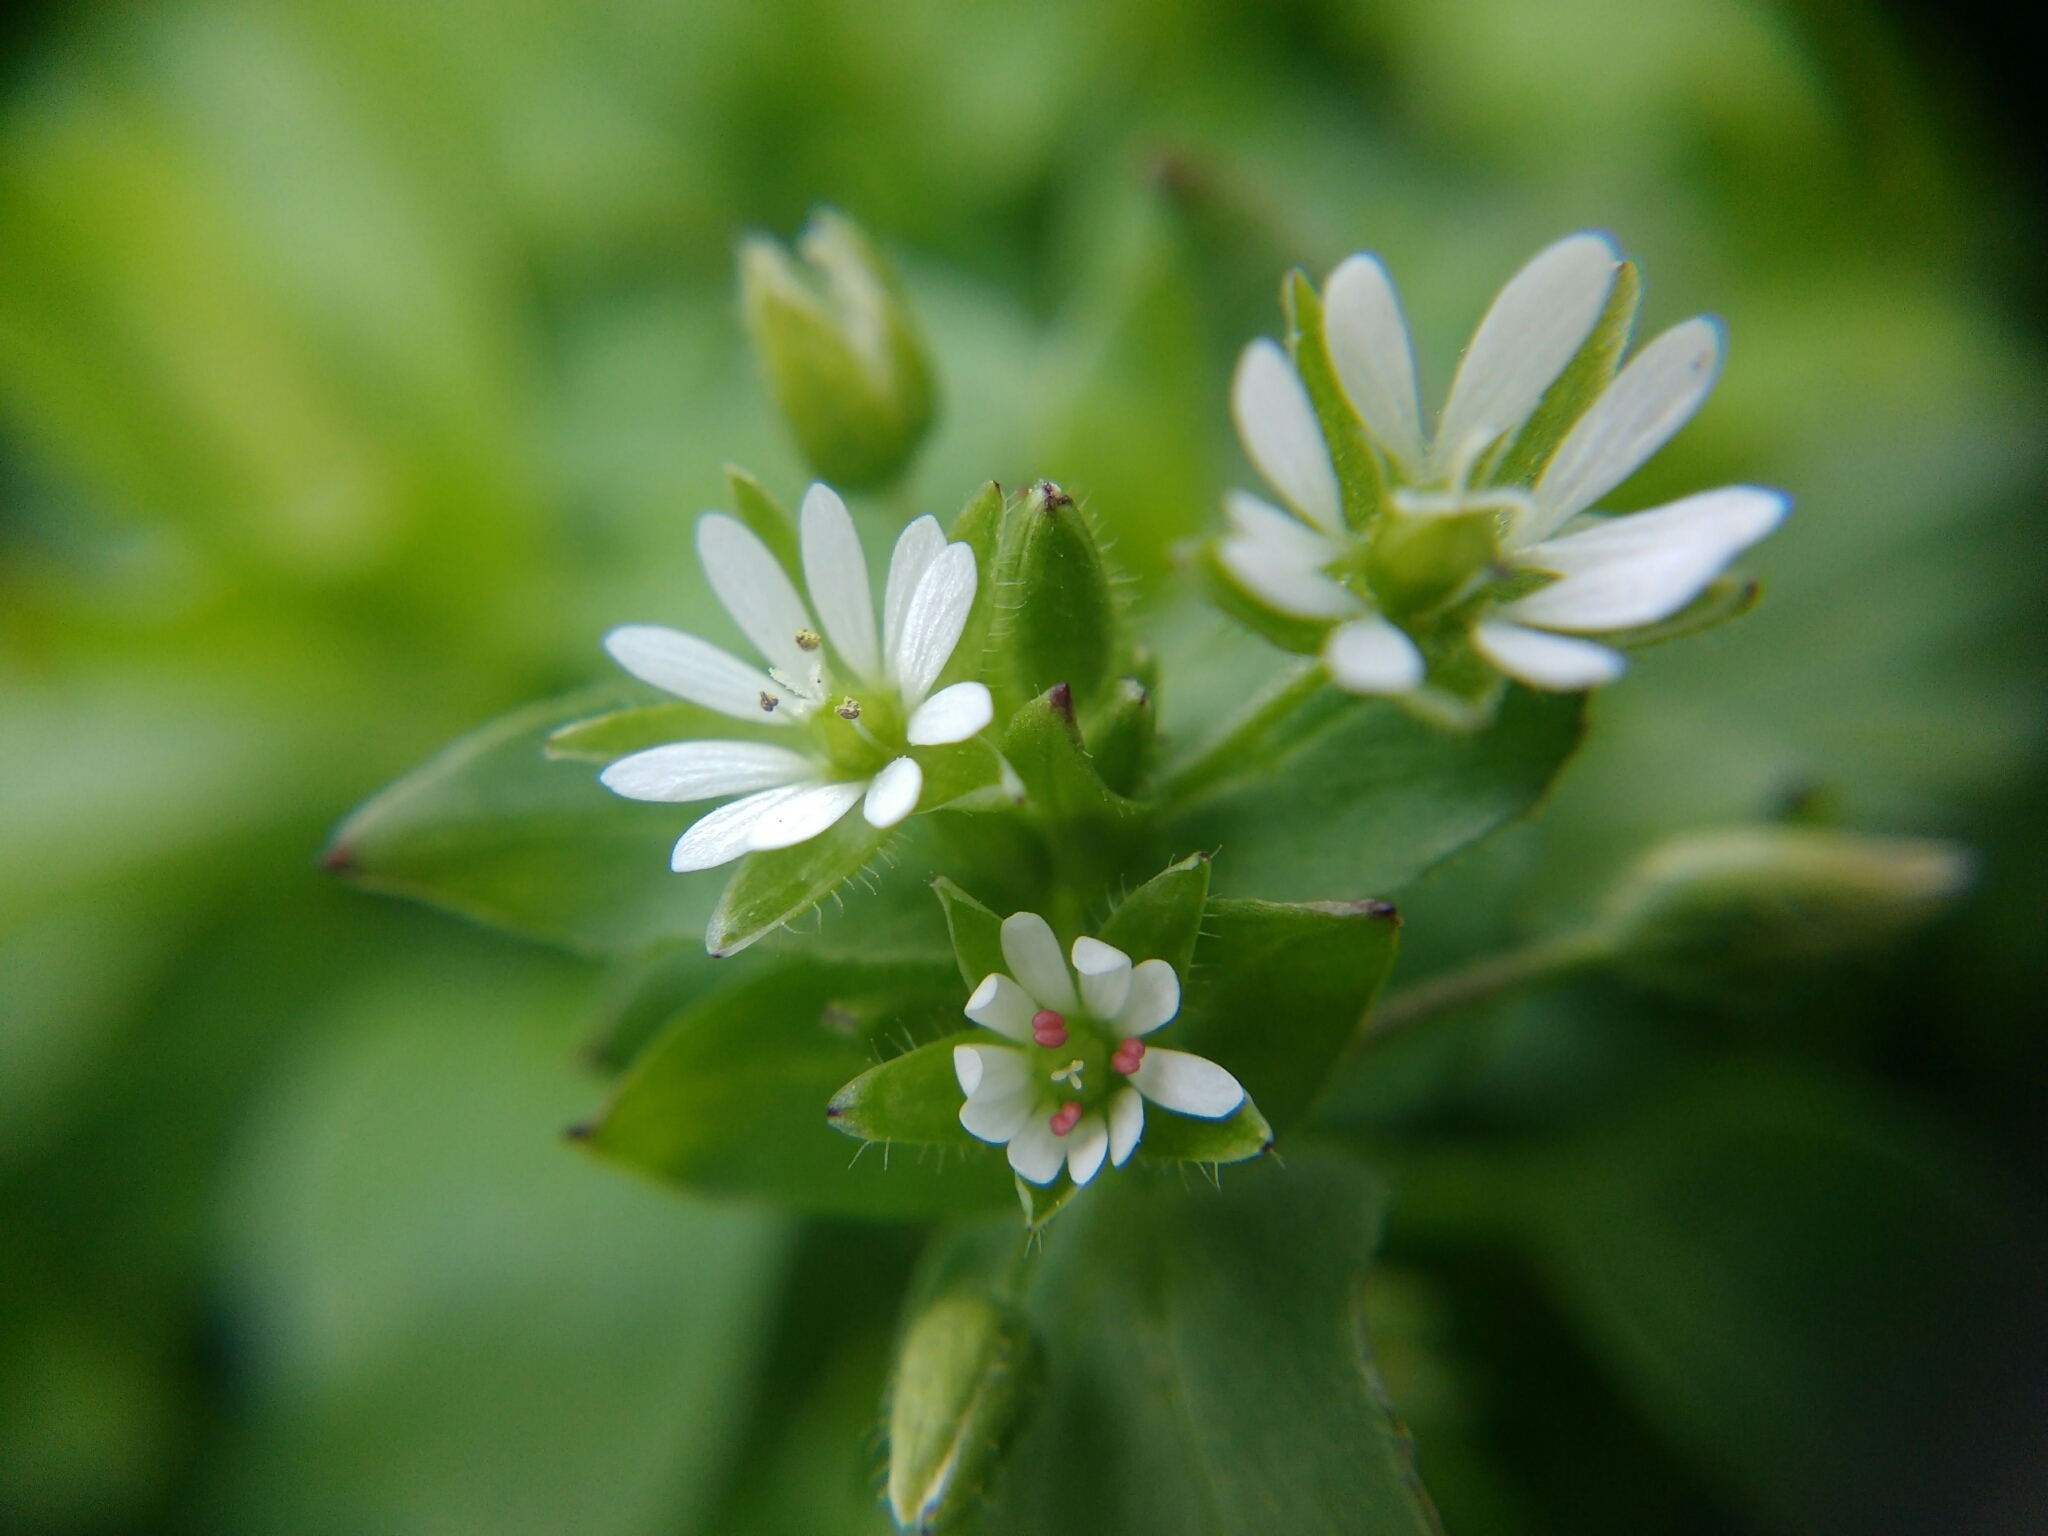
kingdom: Plantae
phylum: Tracheophyta
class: Magnoliopsida
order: Caryophyllales
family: Caryophyllaceae
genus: Stellaria
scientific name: Stellaria media
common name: Common chickweed
